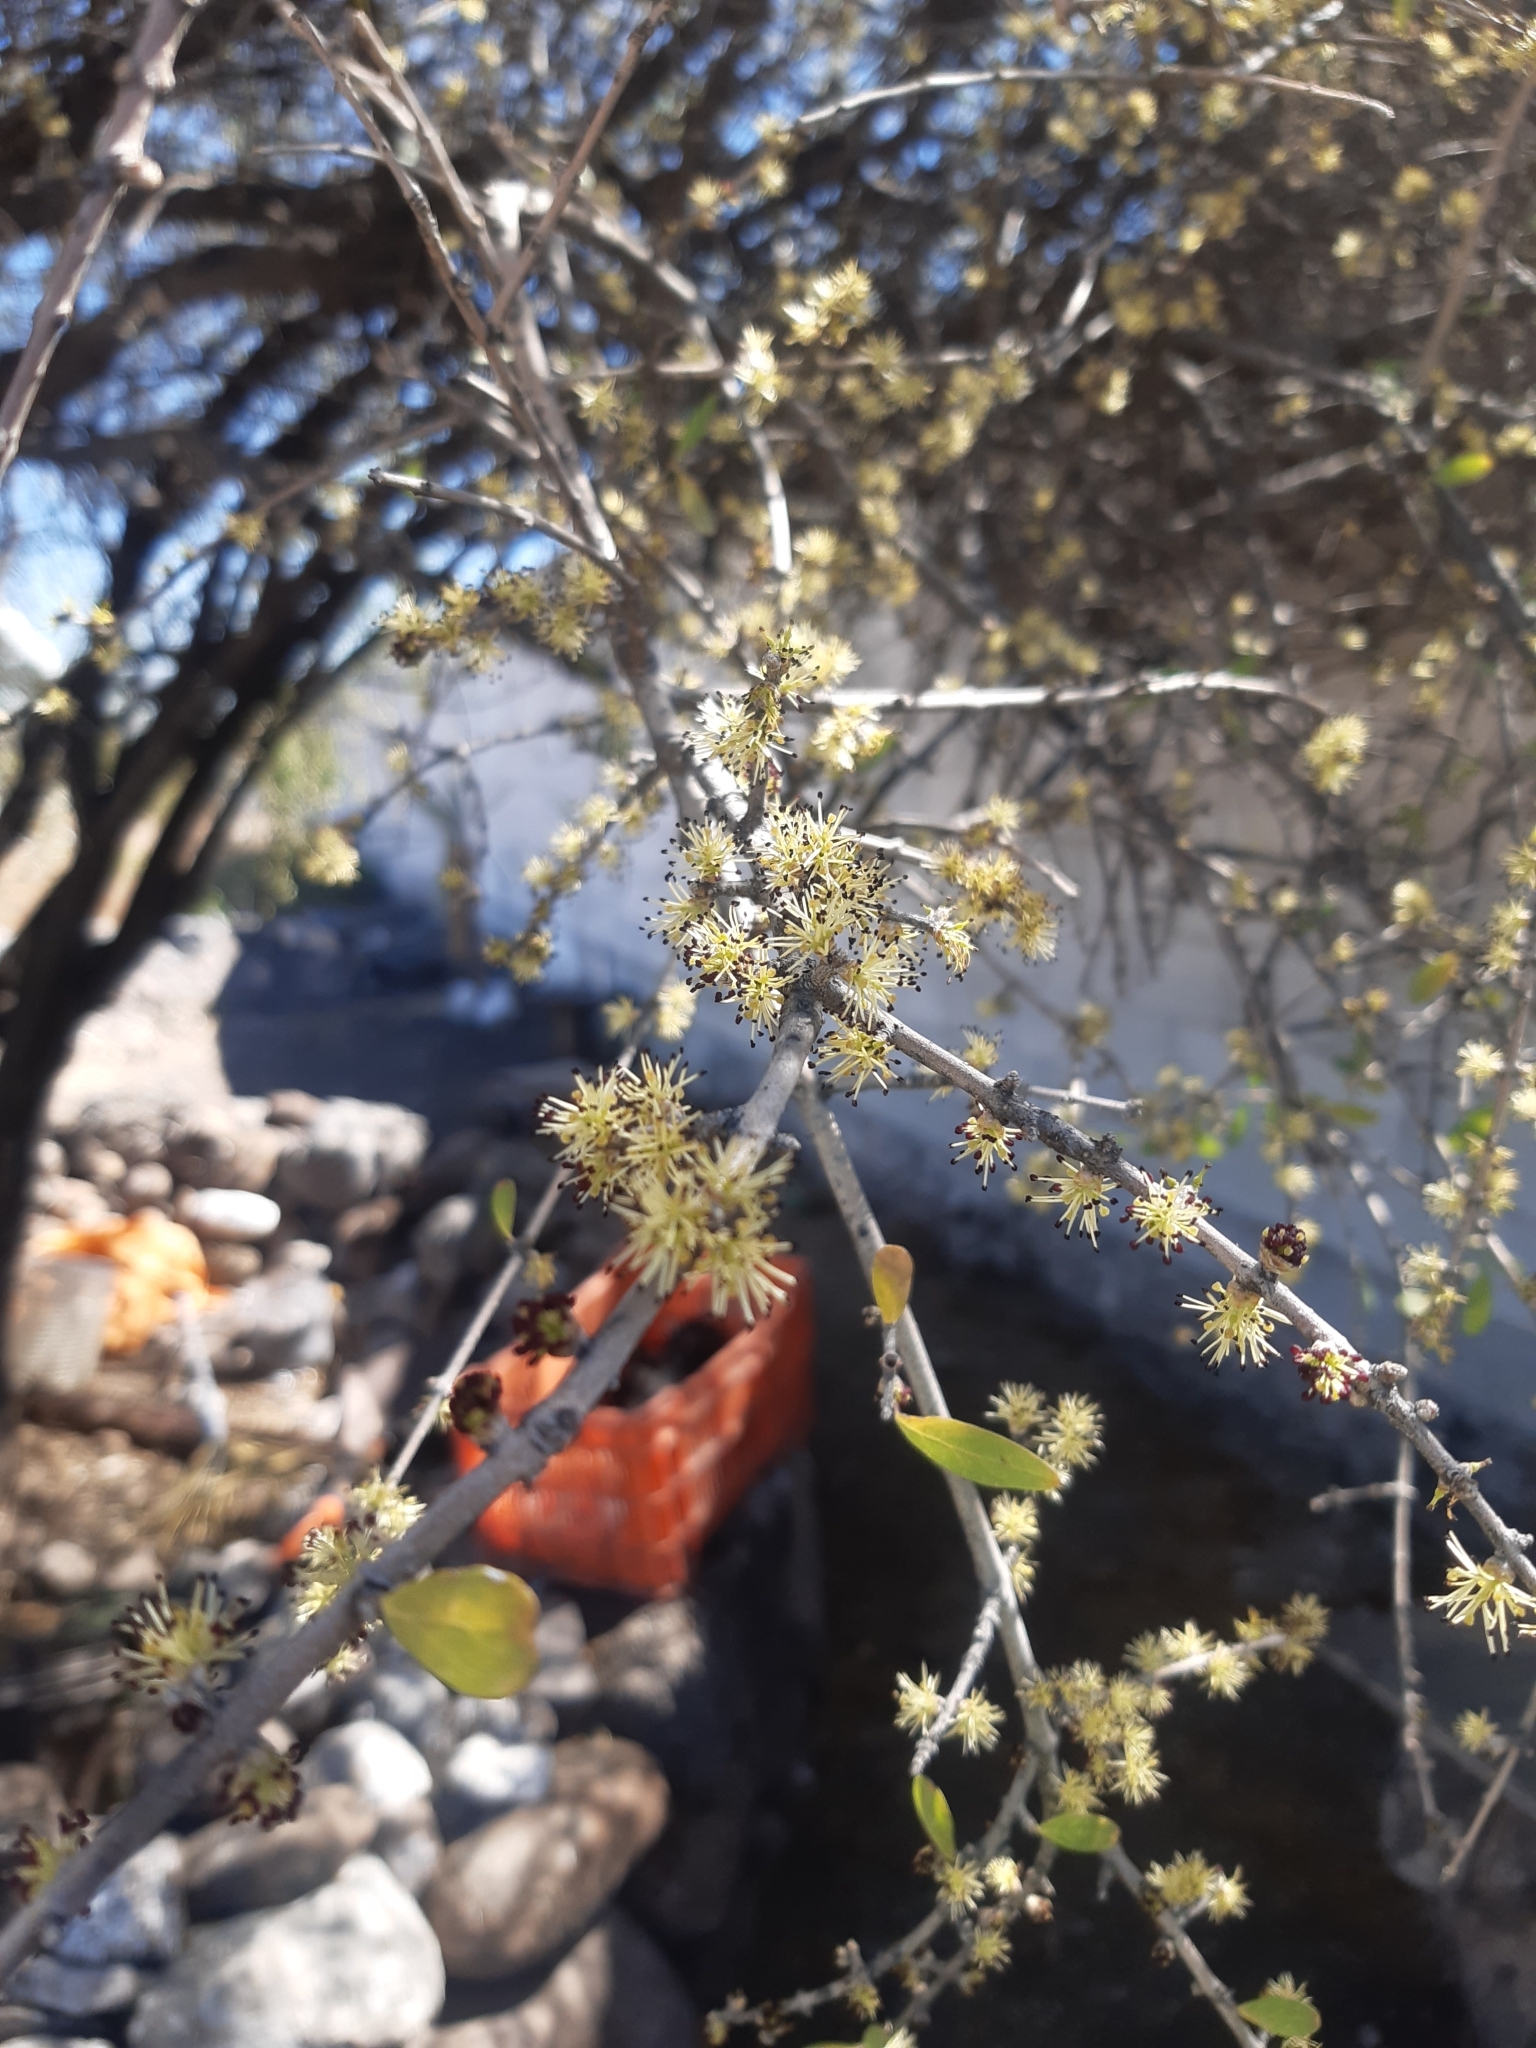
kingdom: Plantae
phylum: Tracheophyta
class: Magnoliopsida
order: Lamiales
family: Oleaceae
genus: Forestiera
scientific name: Forestiera phillyreoides
